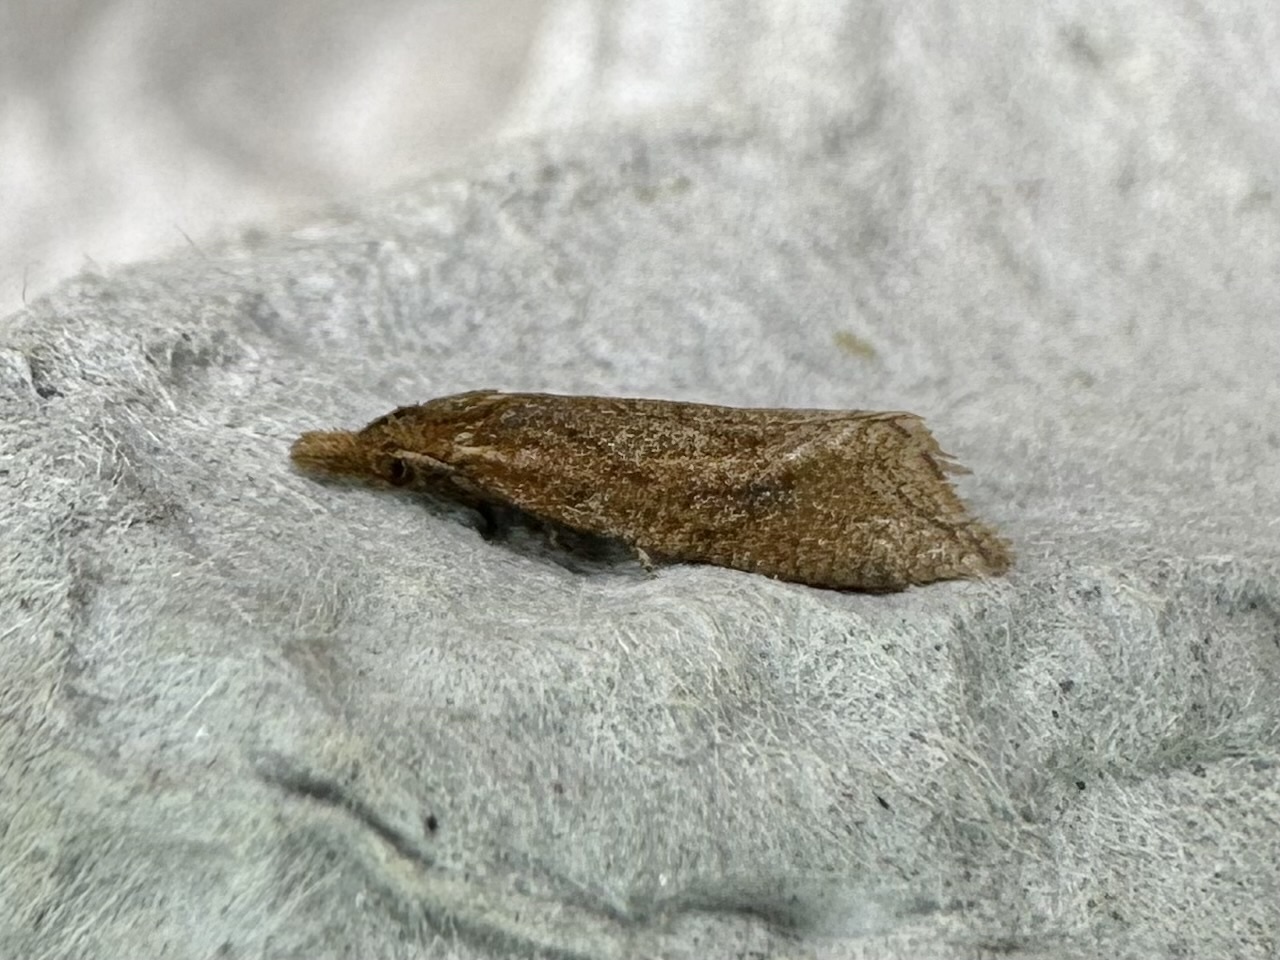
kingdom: Animalia
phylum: Arthropoda
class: Insecta
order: Lepidoptera
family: Tortricidae
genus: Aethes
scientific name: Aethes biscana
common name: Reddish aethes
